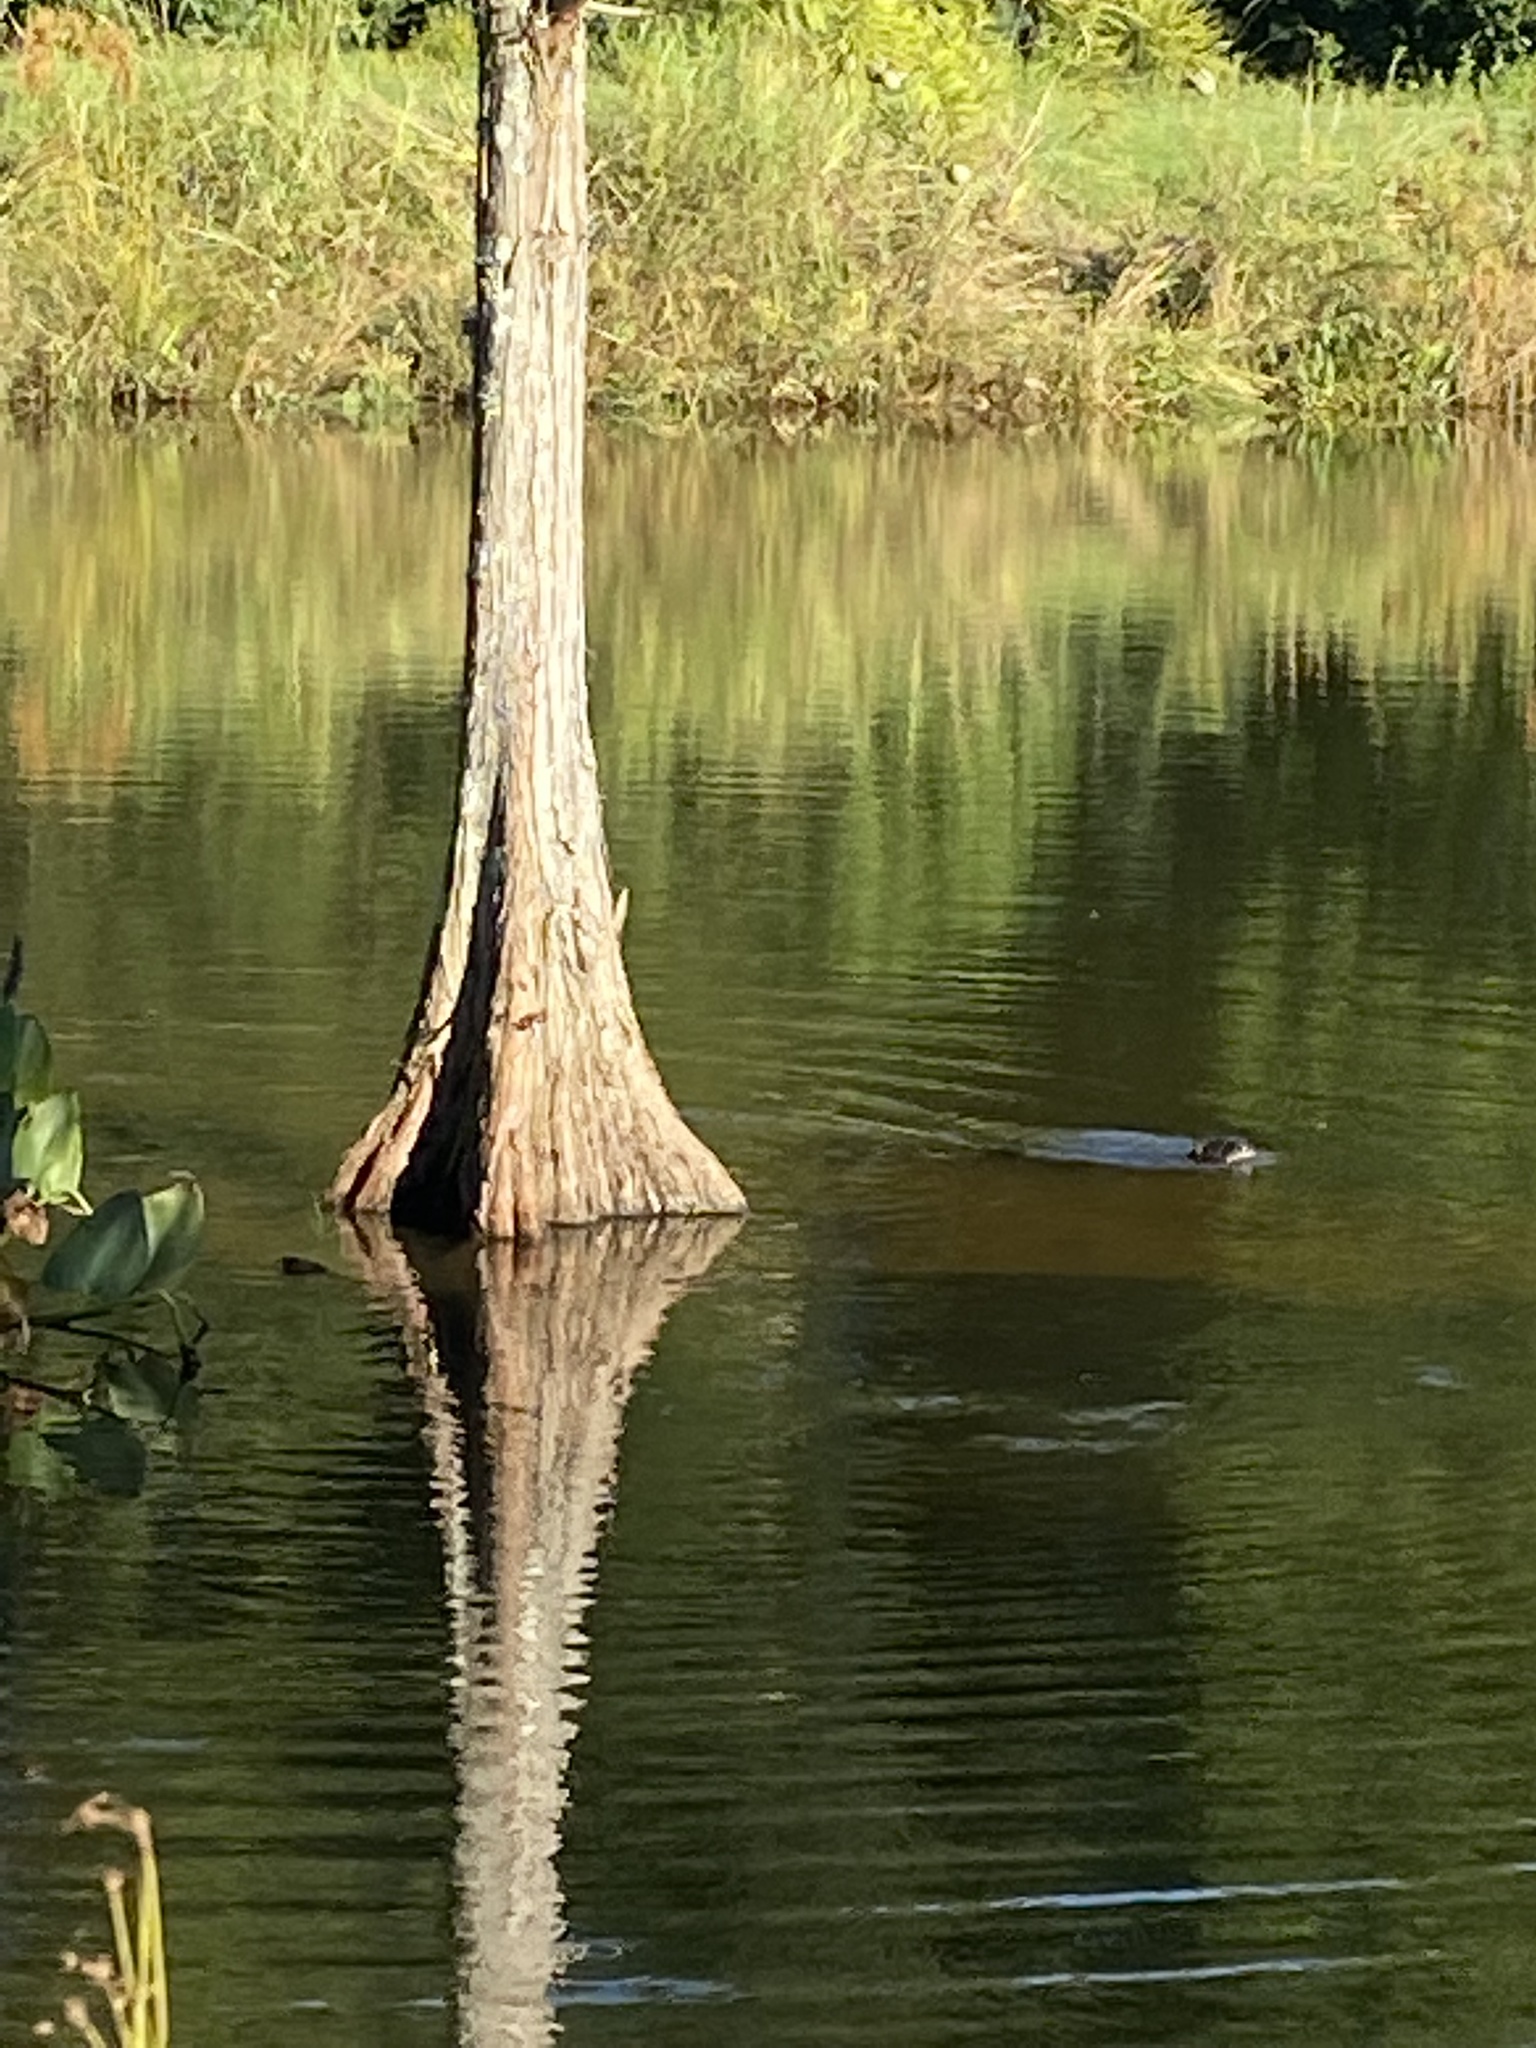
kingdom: Animalia
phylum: Chordata
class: Mammalia
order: Carnivora
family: Mustelidae
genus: Lontra
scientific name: Lontra canadensis
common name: North american river otter
